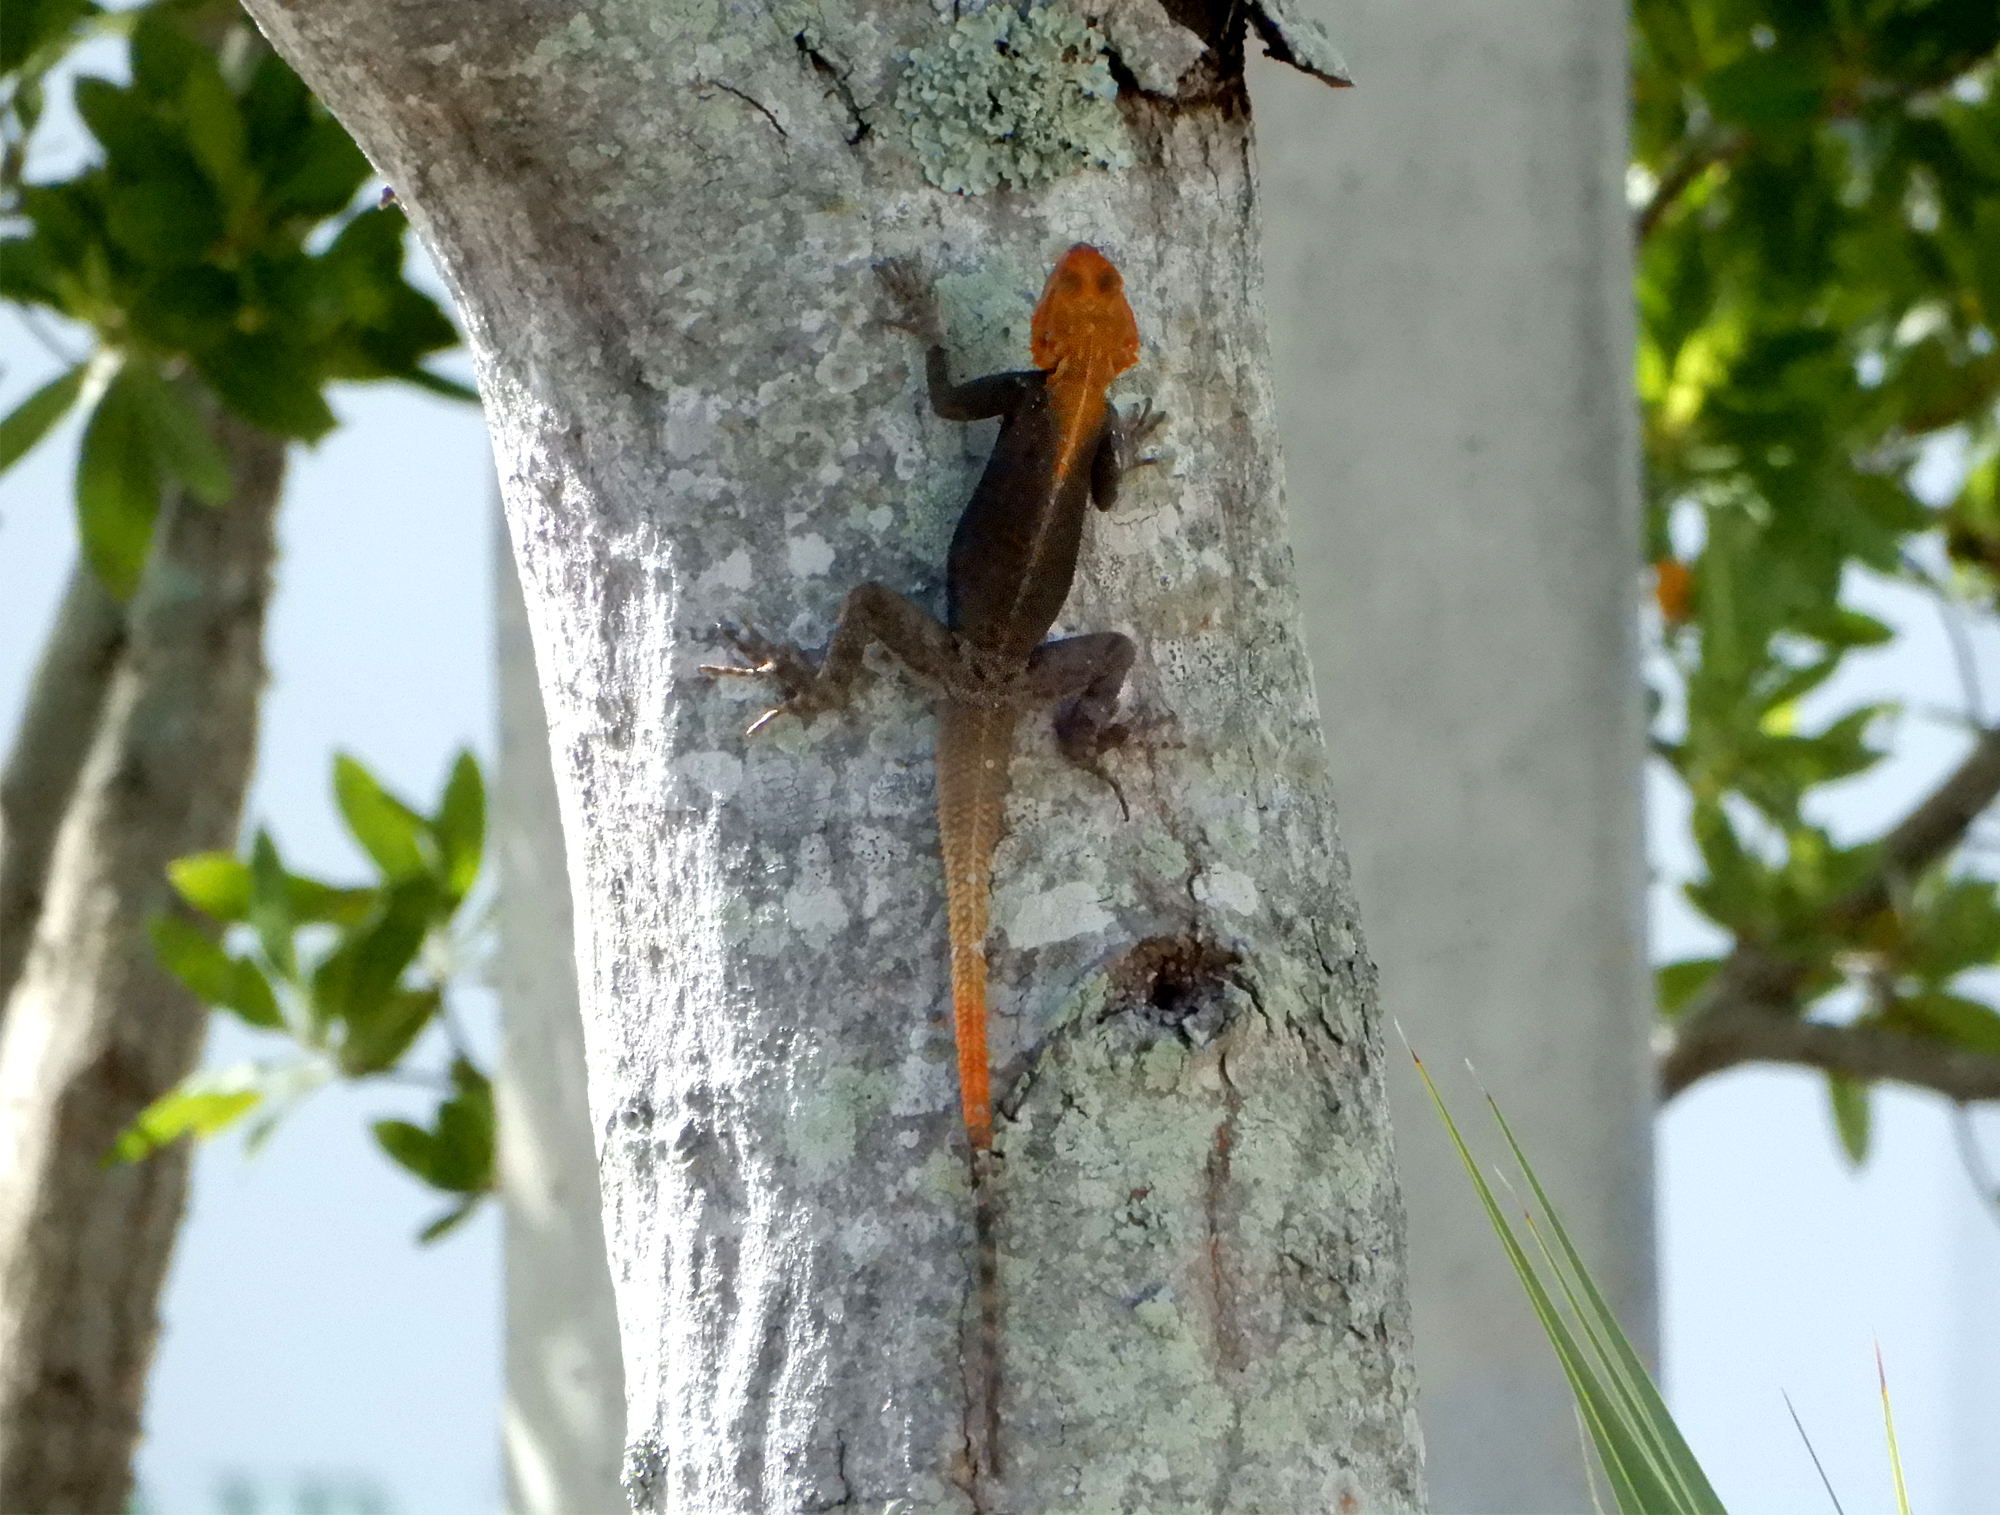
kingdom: Animalia
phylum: Chordata
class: Squamata
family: Agamidae
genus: Agama
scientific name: Agama picticauda
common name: Red-headed agama
